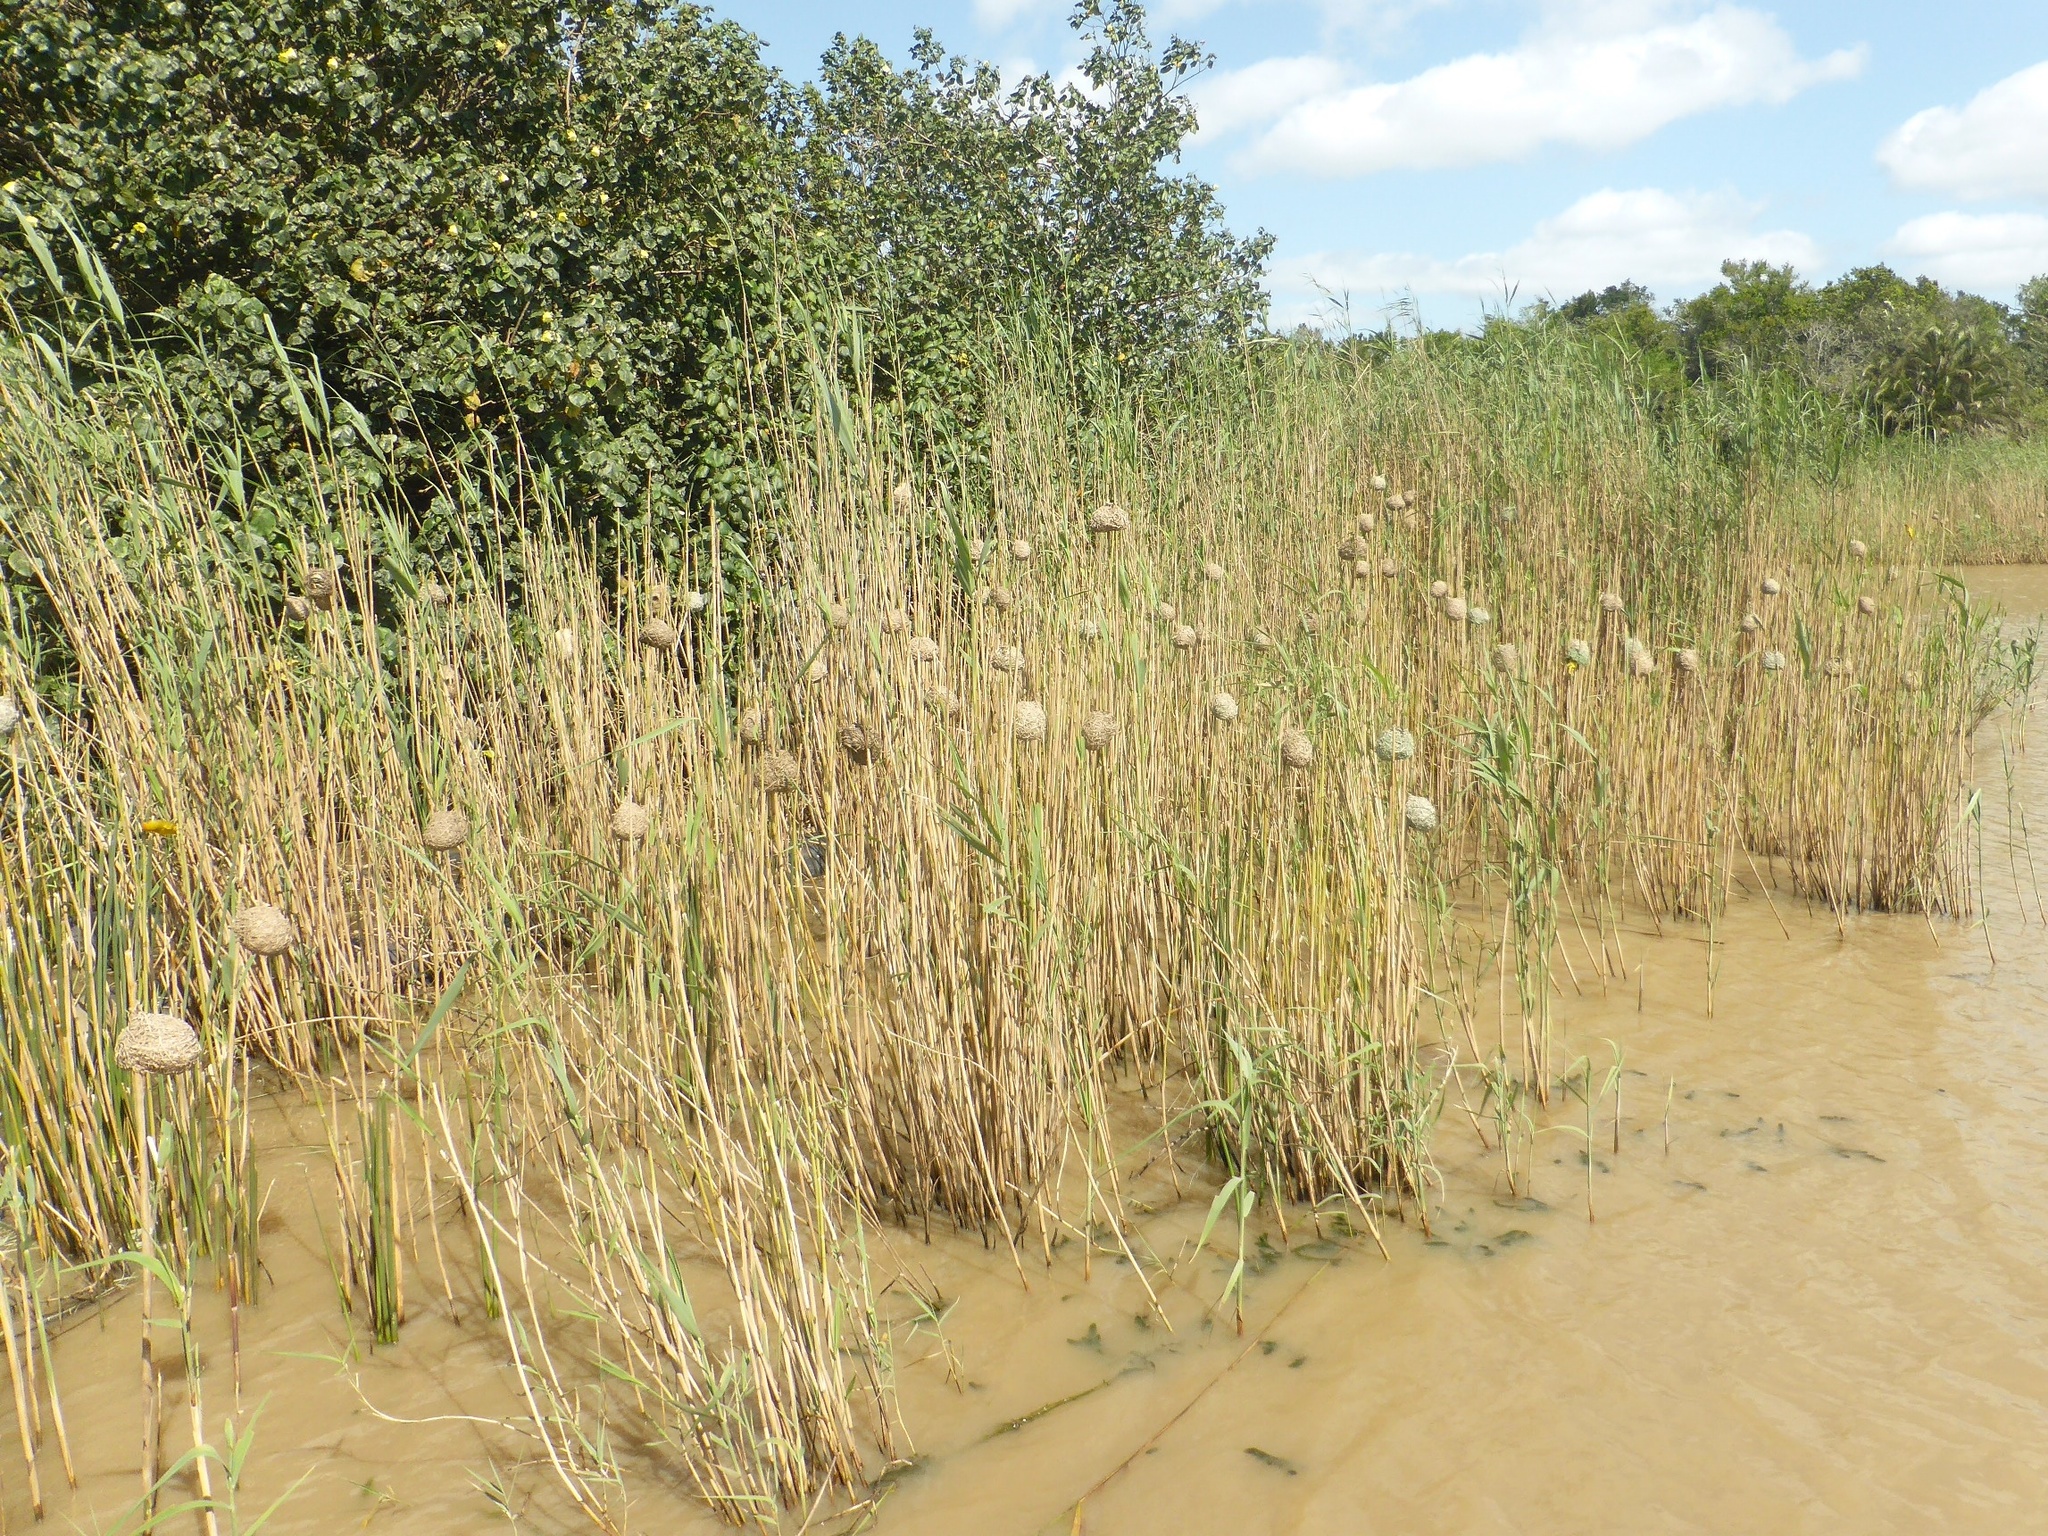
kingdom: Animalia
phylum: Chordata
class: Aves
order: Passeriformes
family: Ploceidae
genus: Ploceus
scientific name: Ploceus subaureus
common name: Yellow weaver
